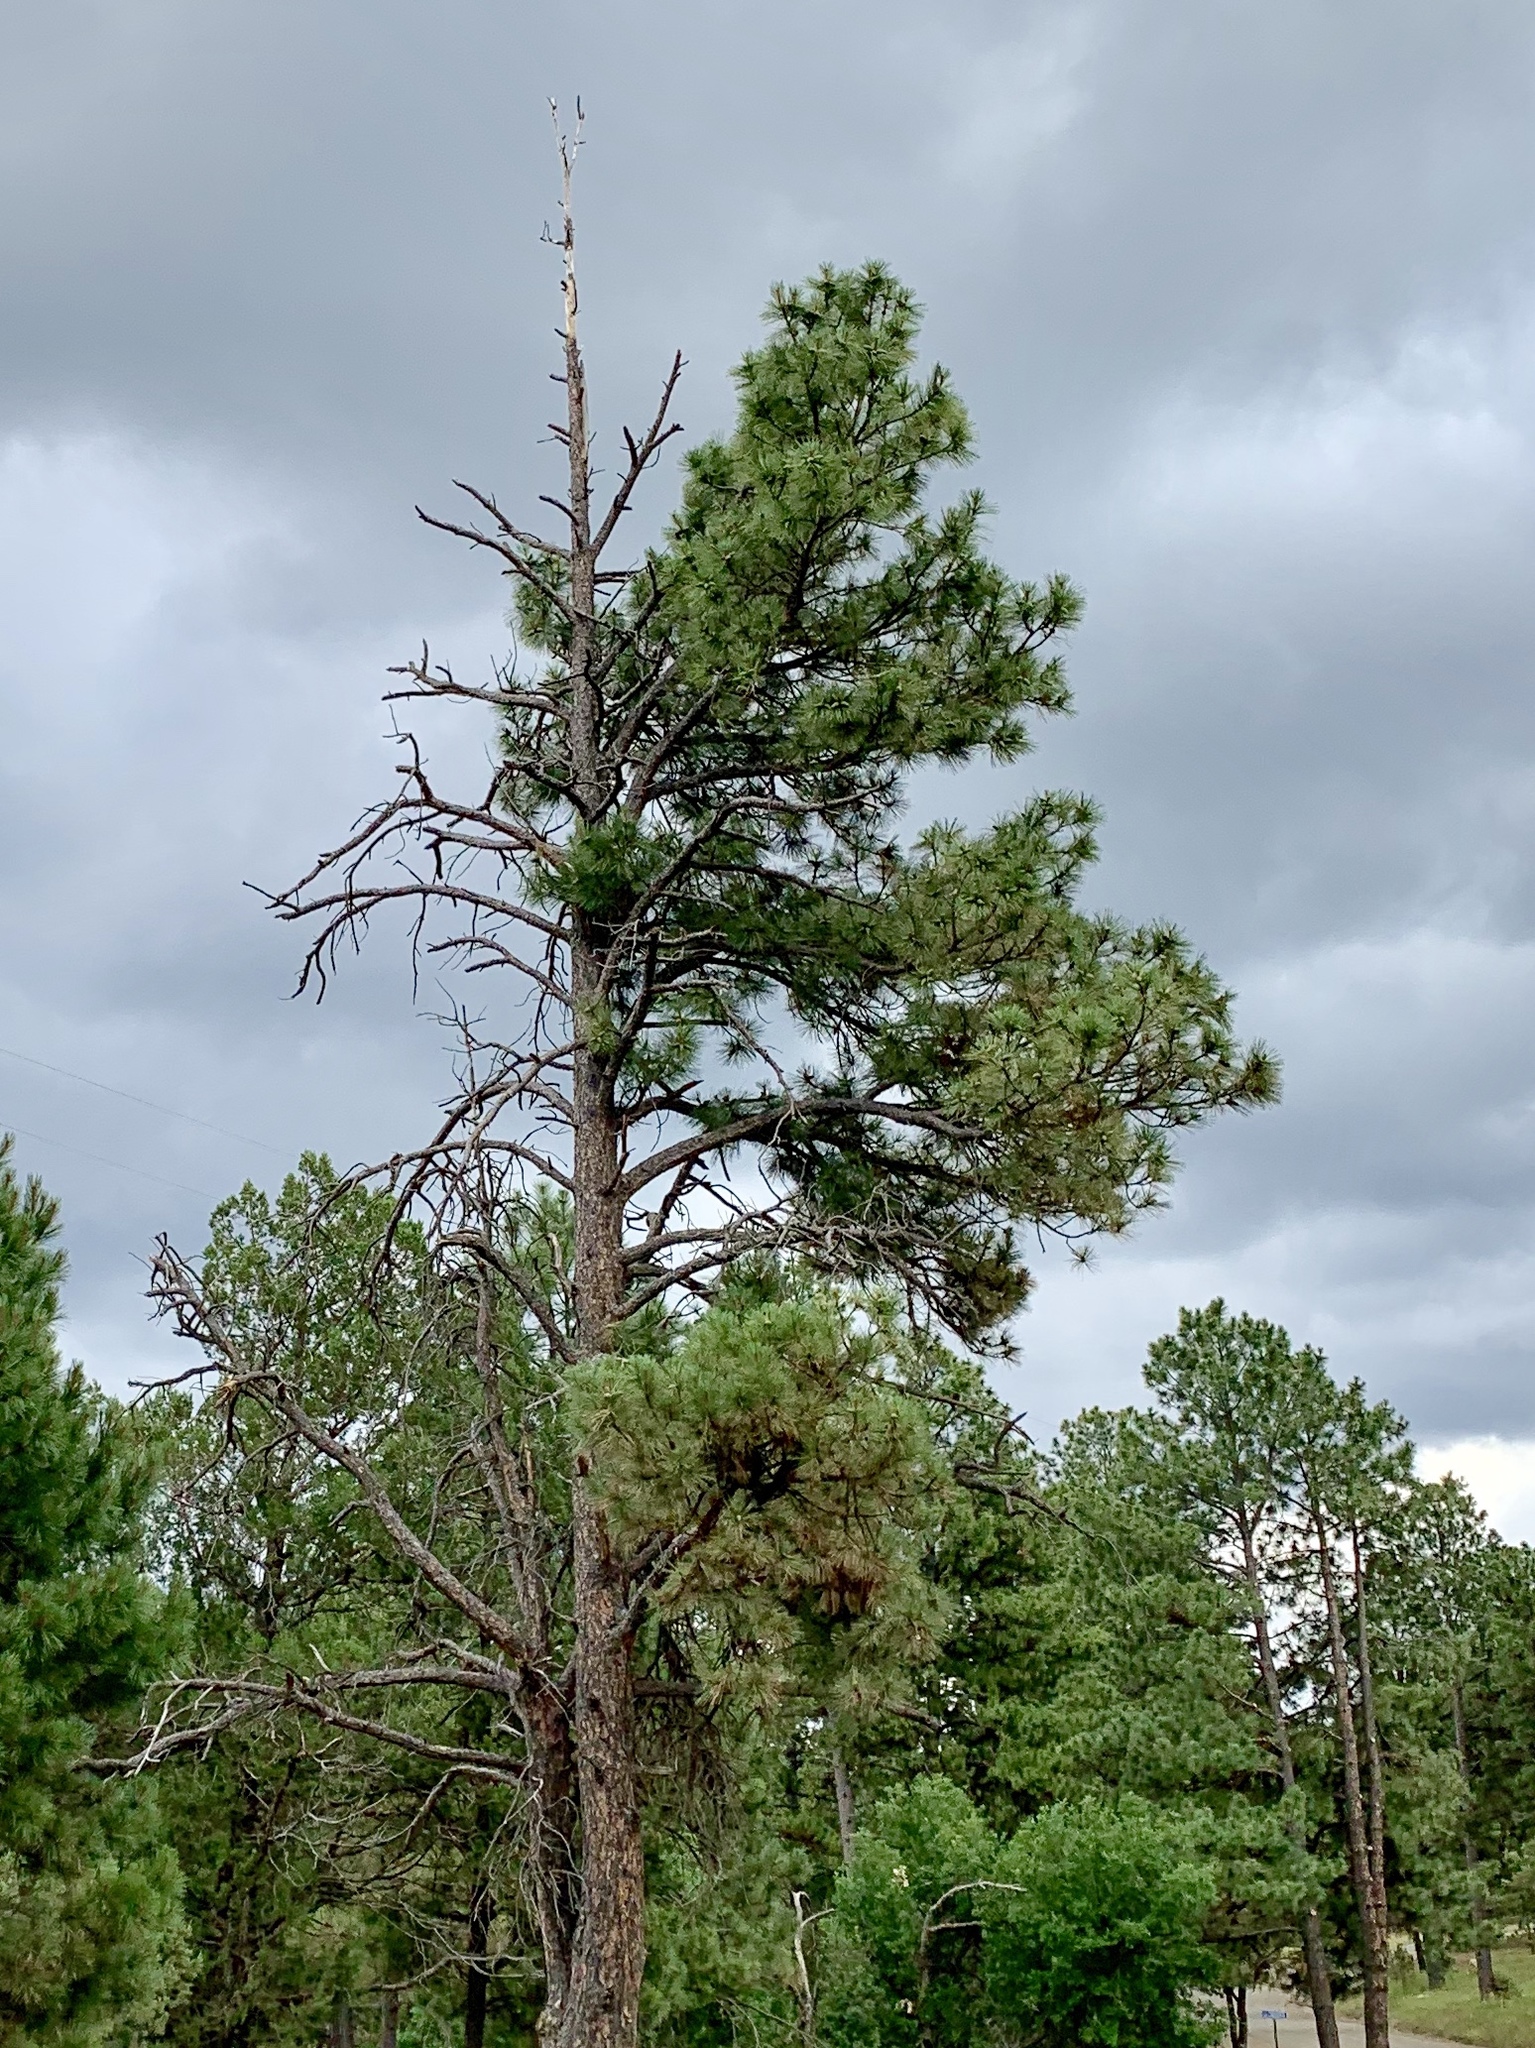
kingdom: Plantae
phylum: Tracheophyta
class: Pinopsida
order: Pinales
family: Pinaceae
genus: Pinus
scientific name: Pinus ponderosa
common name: Western yellow-pine
